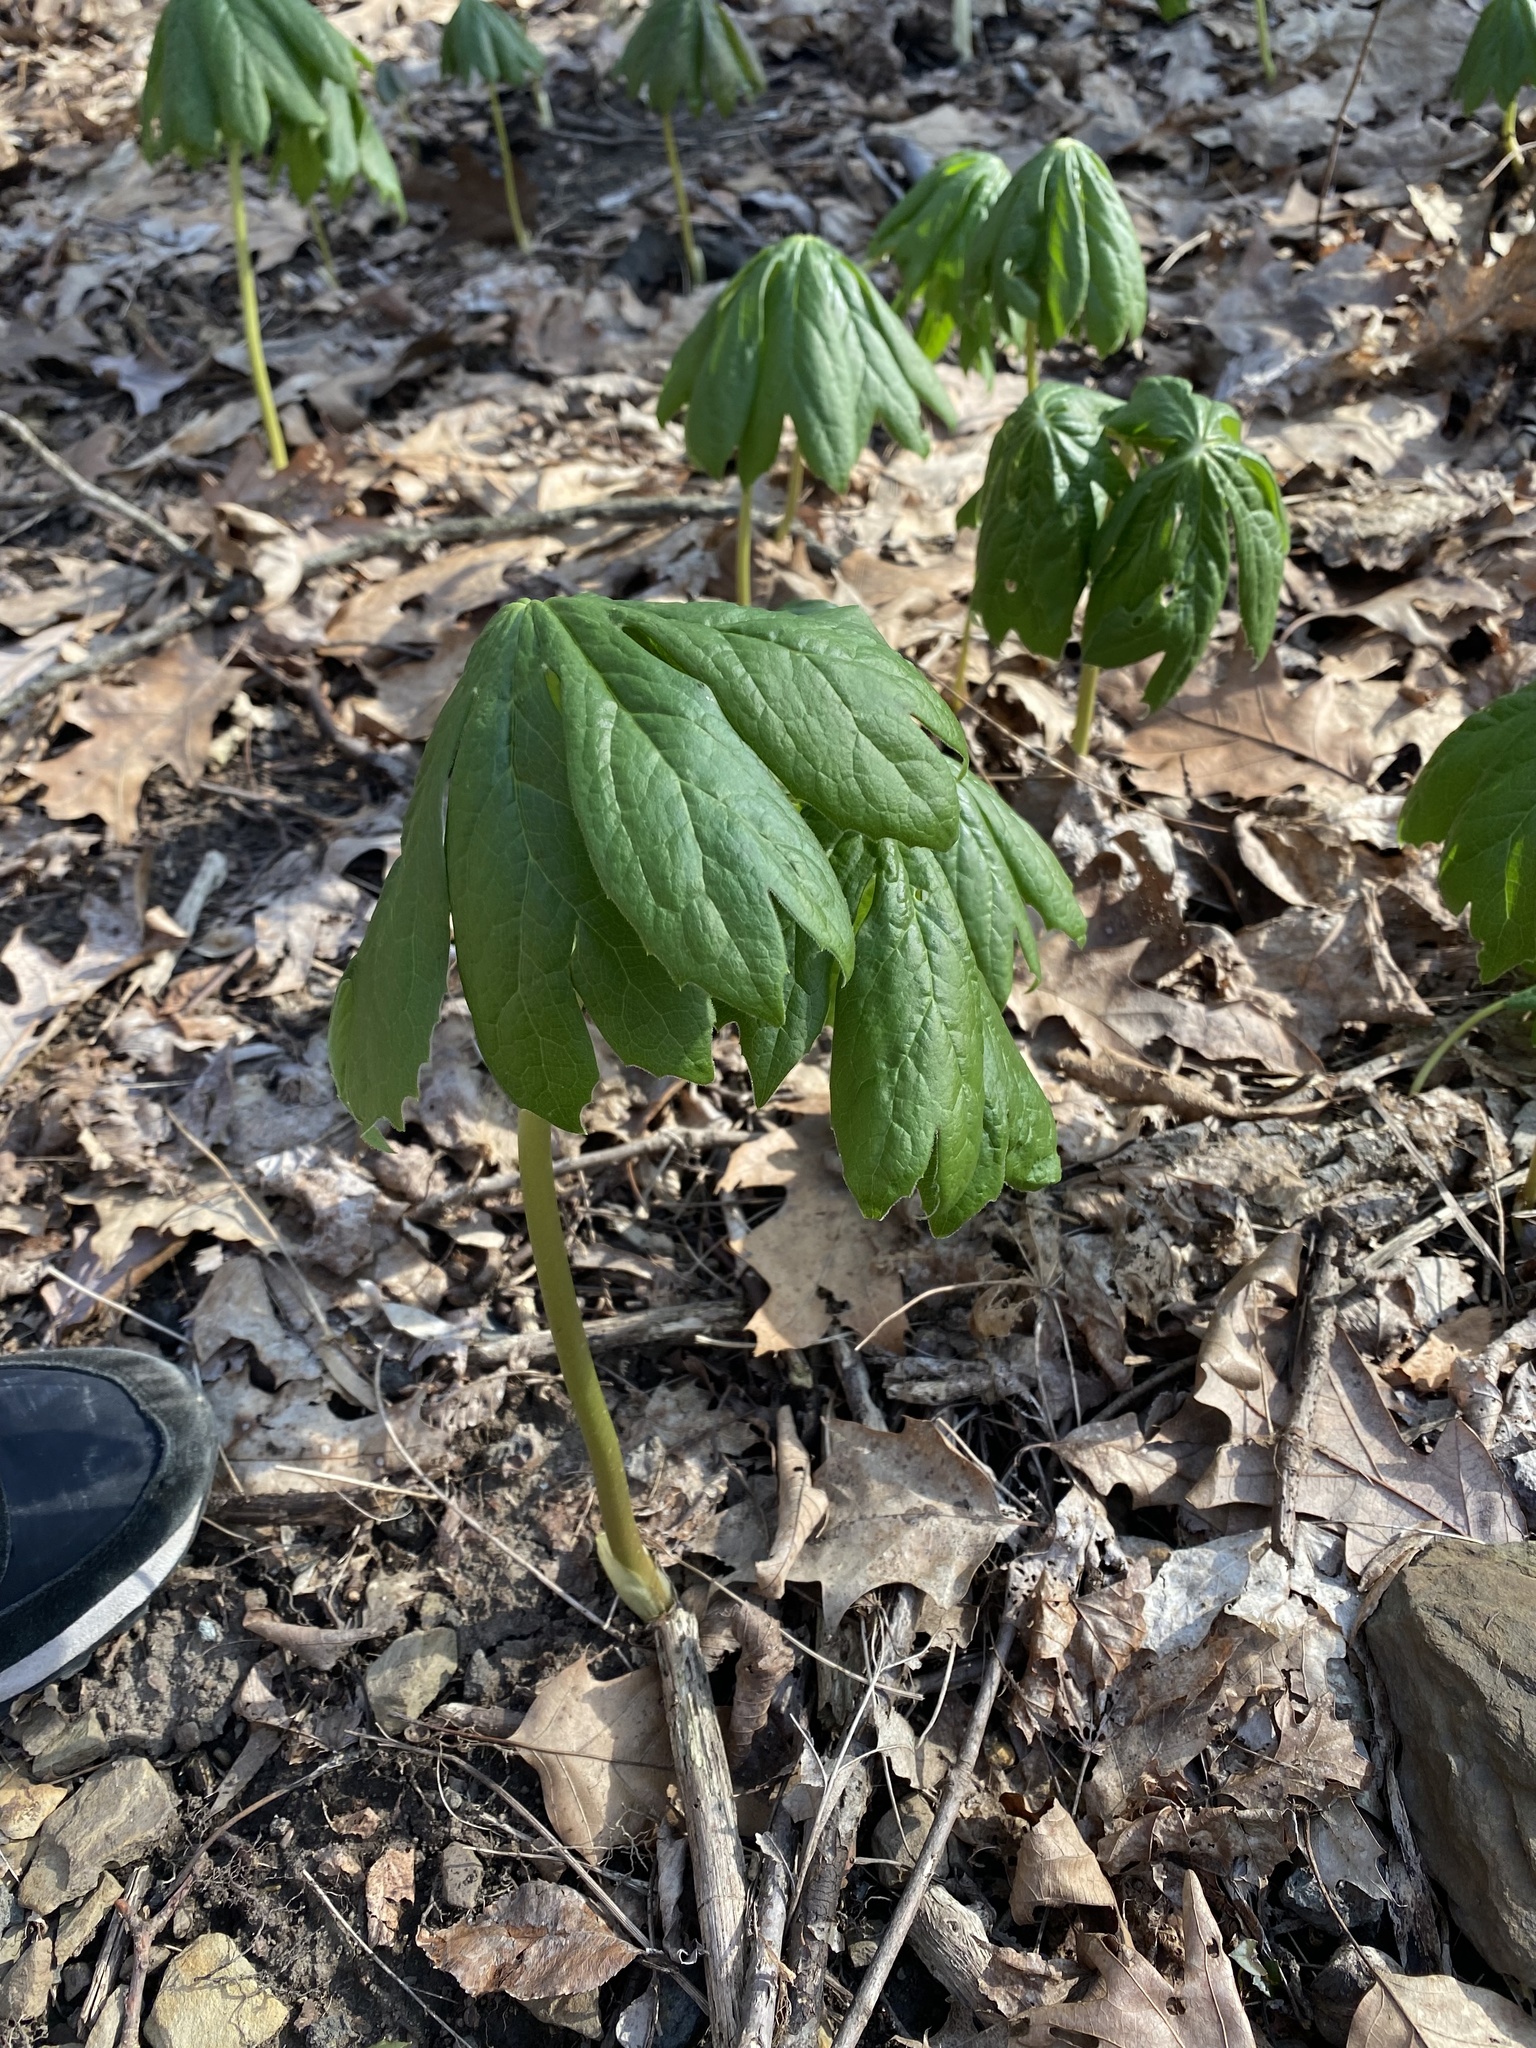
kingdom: Plantae
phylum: Tracheophyta
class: Magnoliopsida
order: Ranunculales
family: Berberidaceae
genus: Podophyllum
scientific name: Podophyllum peltatum
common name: Wild mandrake
